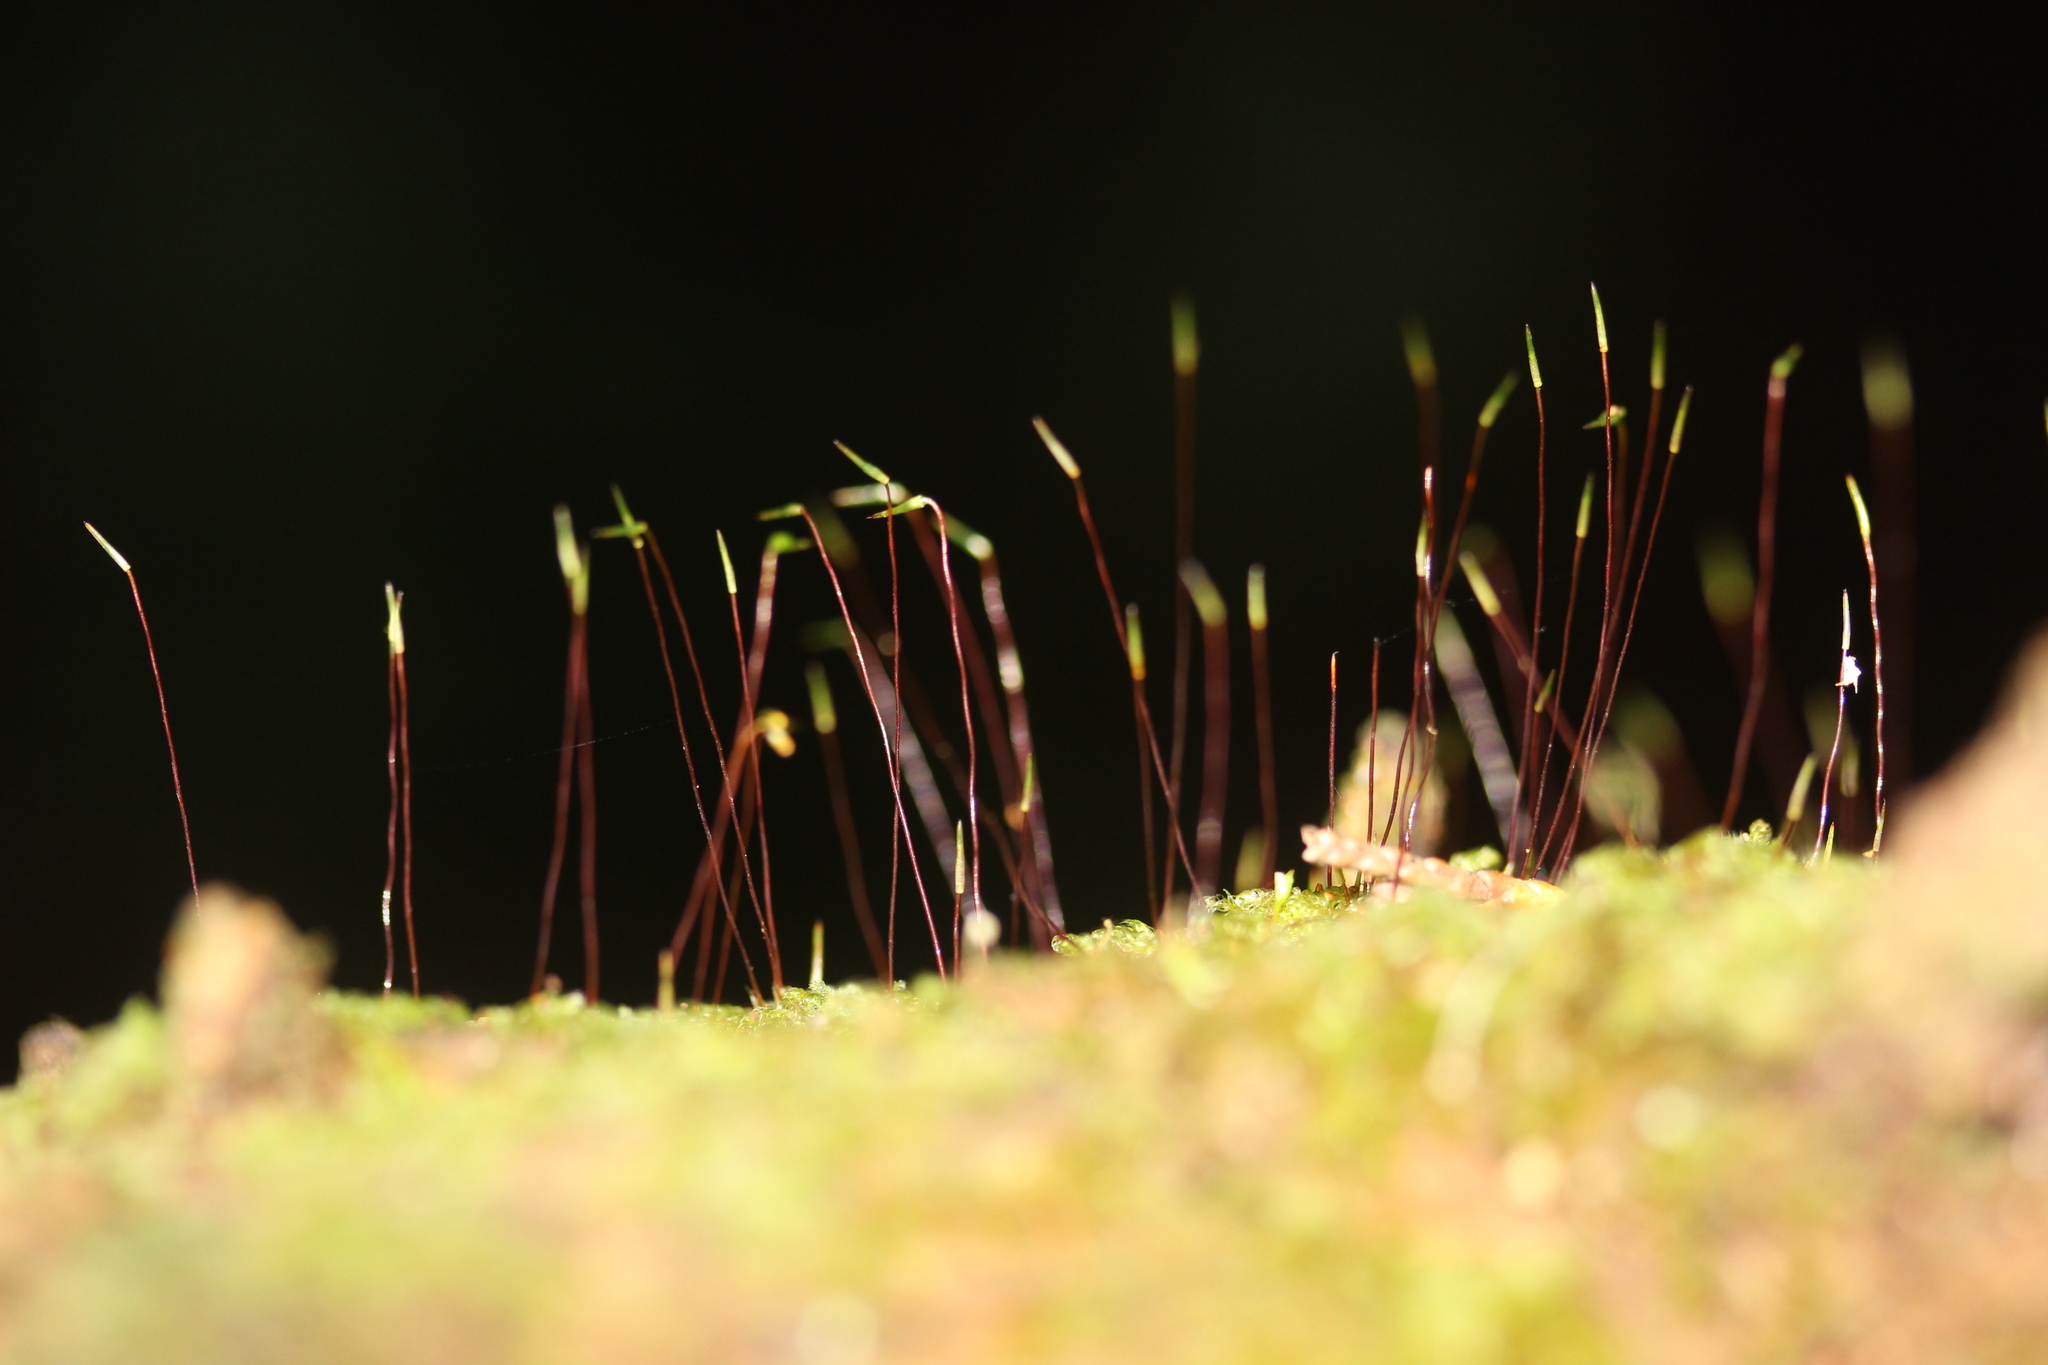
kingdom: Plantae
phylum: Bryophyta
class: Bryopsida
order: Hypnales
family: Pylaisiadelphaceae
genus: Notohypnum
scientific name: Notohypnum chrysogaster
